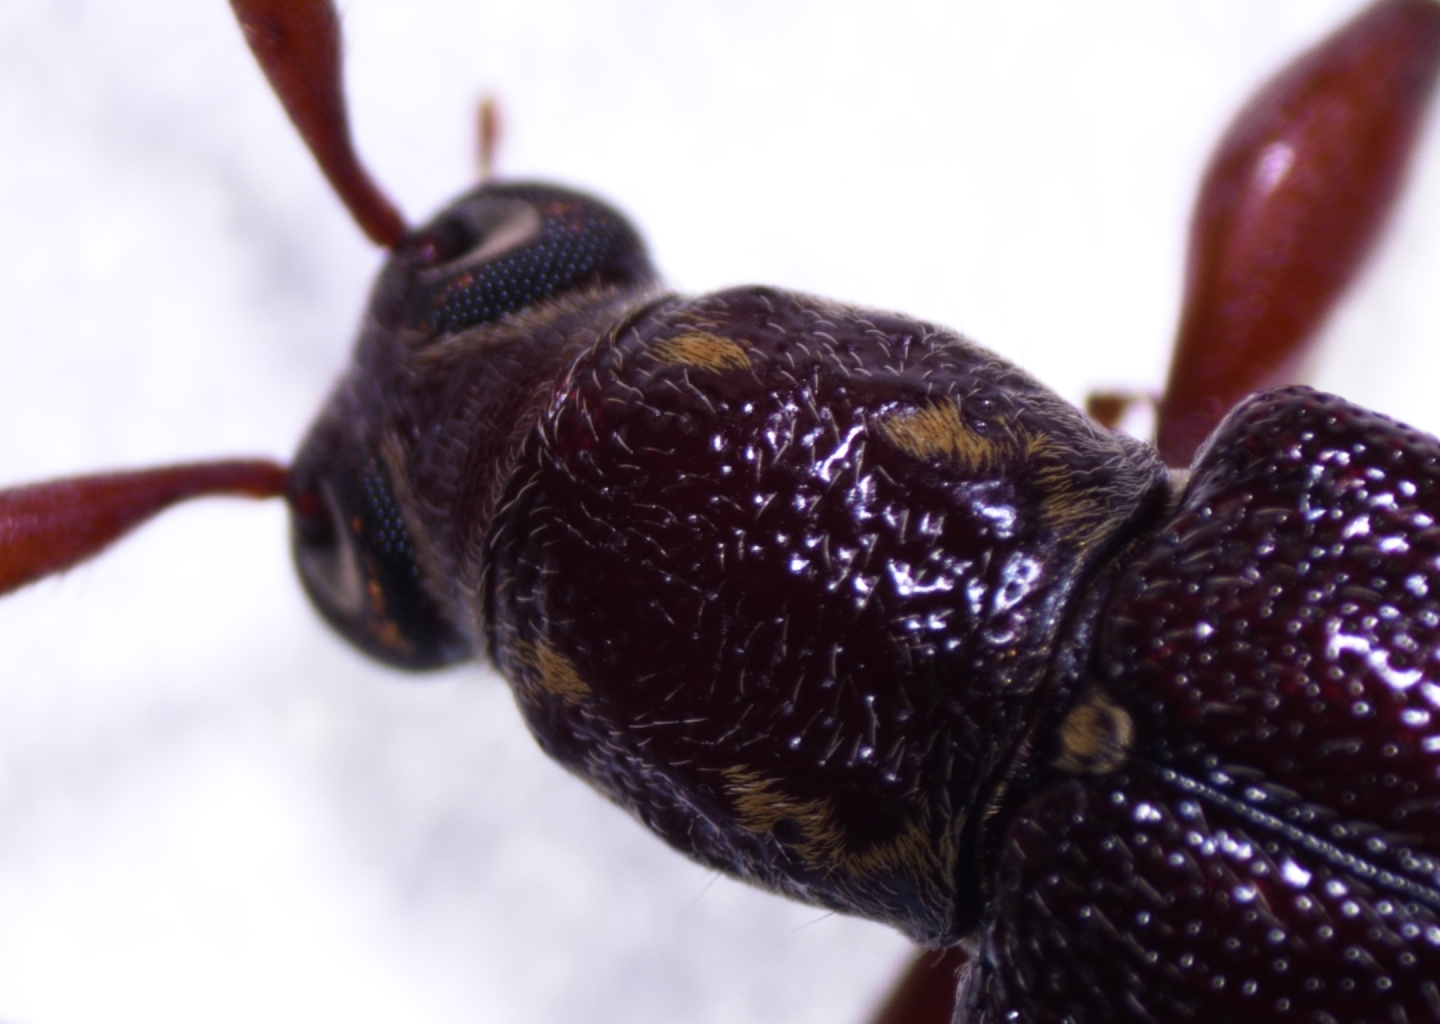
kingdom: Animalia
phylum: Arthropoda
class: Insecta
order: Coleoptera
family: Cerambycidae
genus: Ceresium
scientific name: Ceresium unicolor
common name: Citrus longhorn
